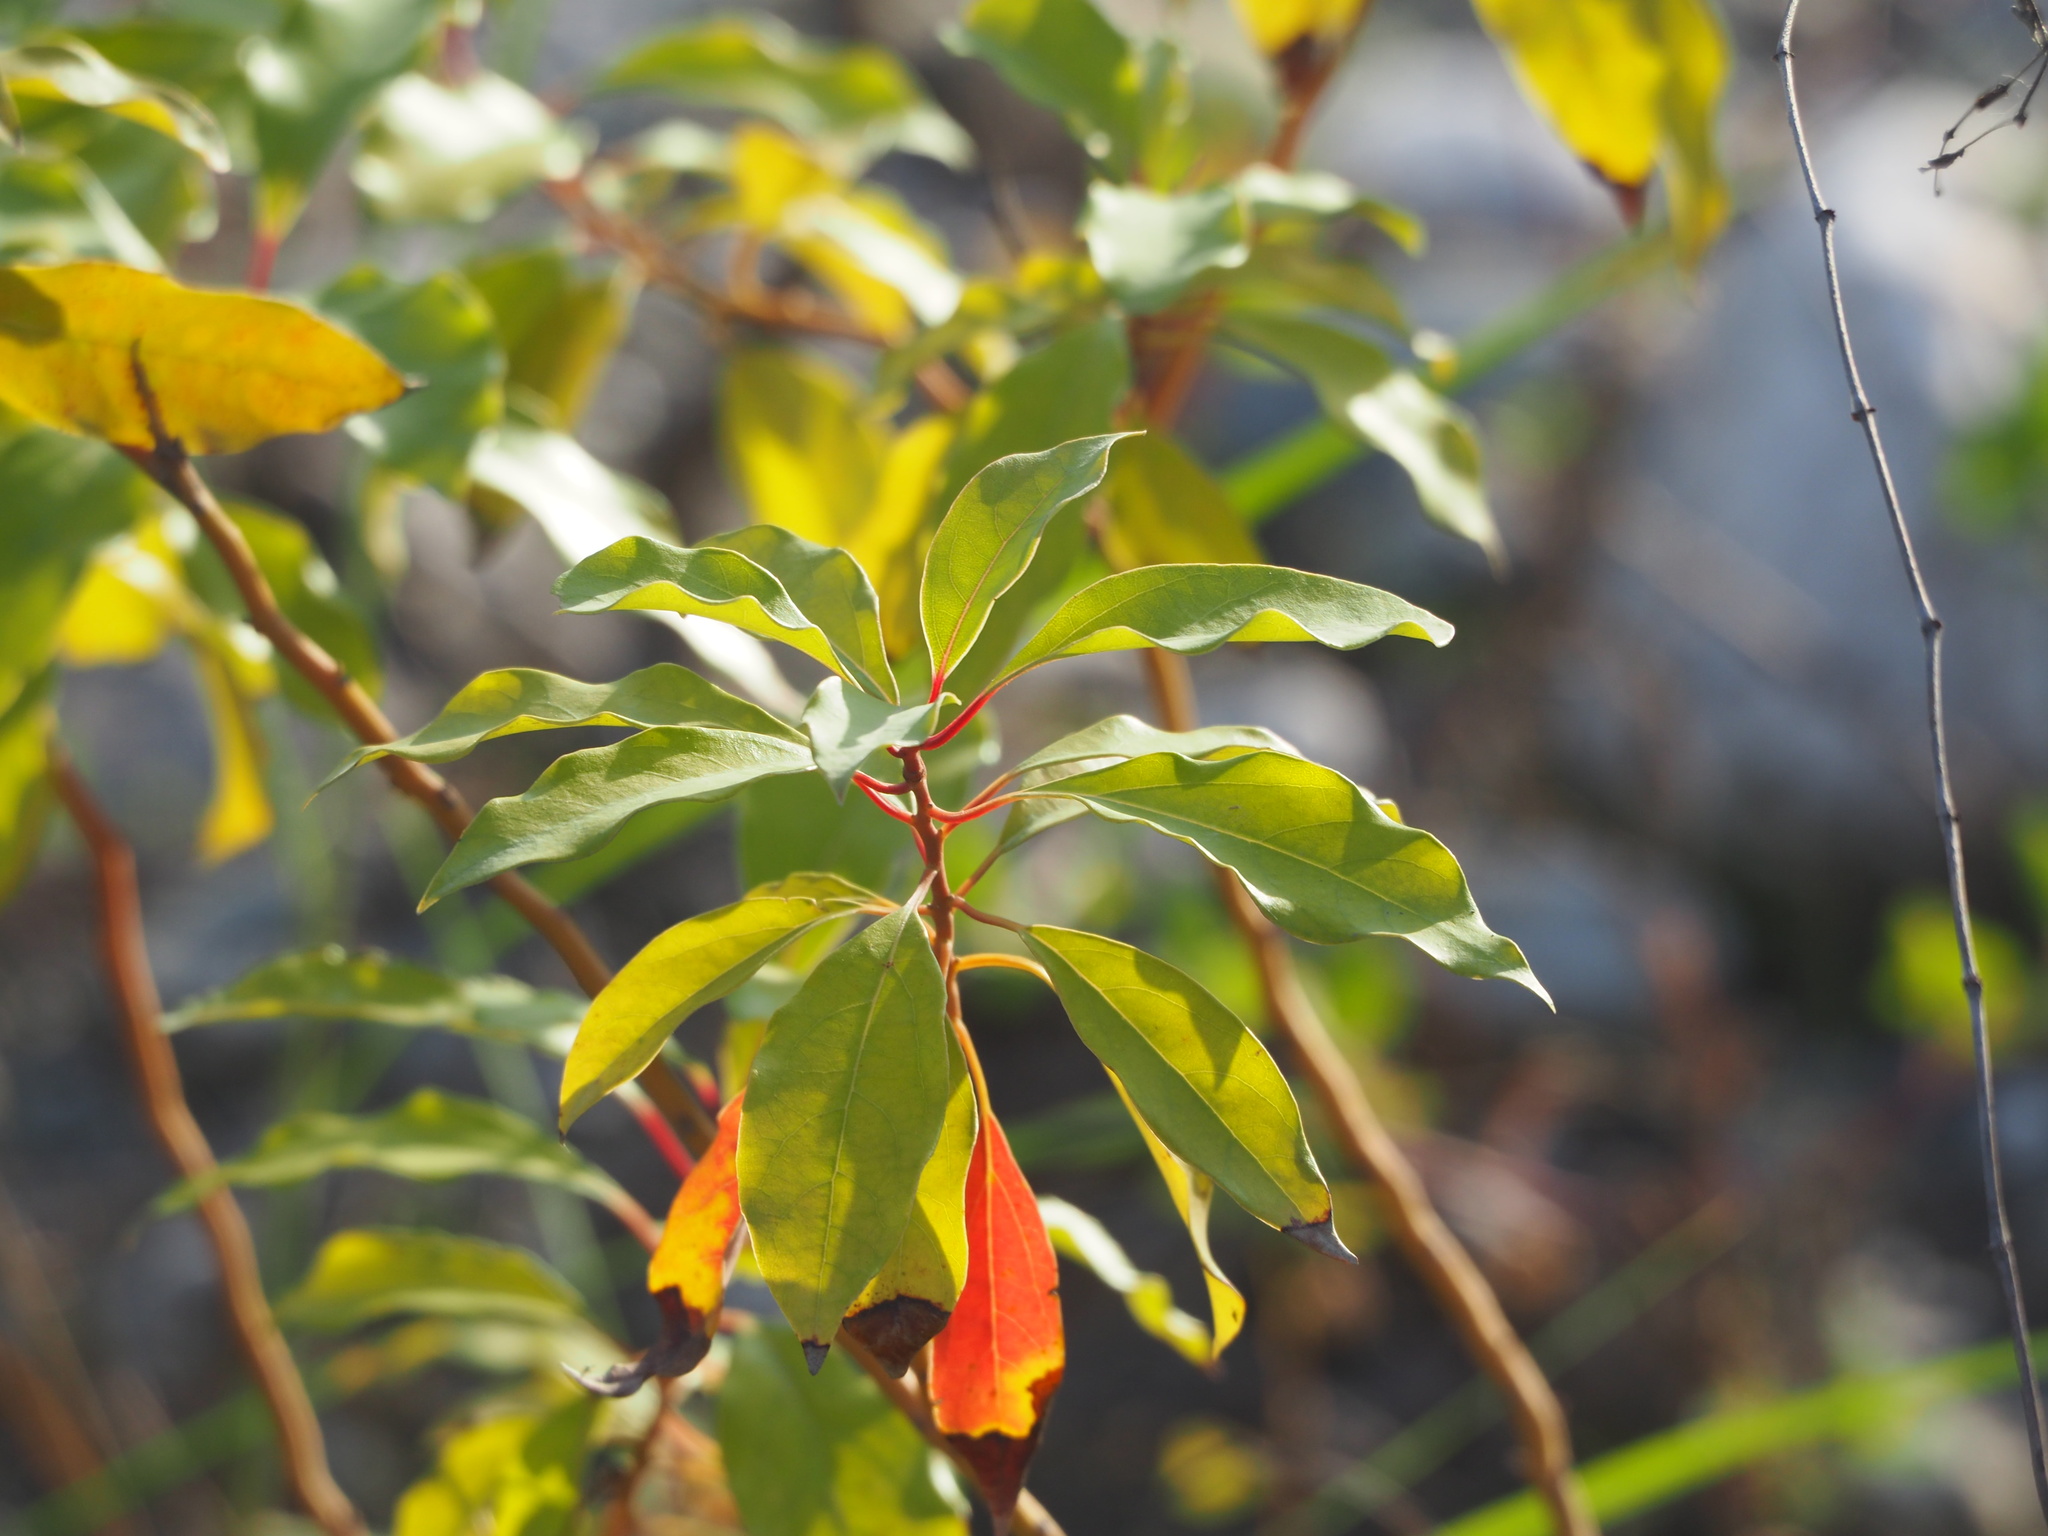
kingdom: Plantae
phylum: Tracheophyta
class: Magnoliopsida
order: Laurales
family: Lauraceae
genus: Cinnamomum
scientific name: Cinnamomum camphora
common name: Camphortree
